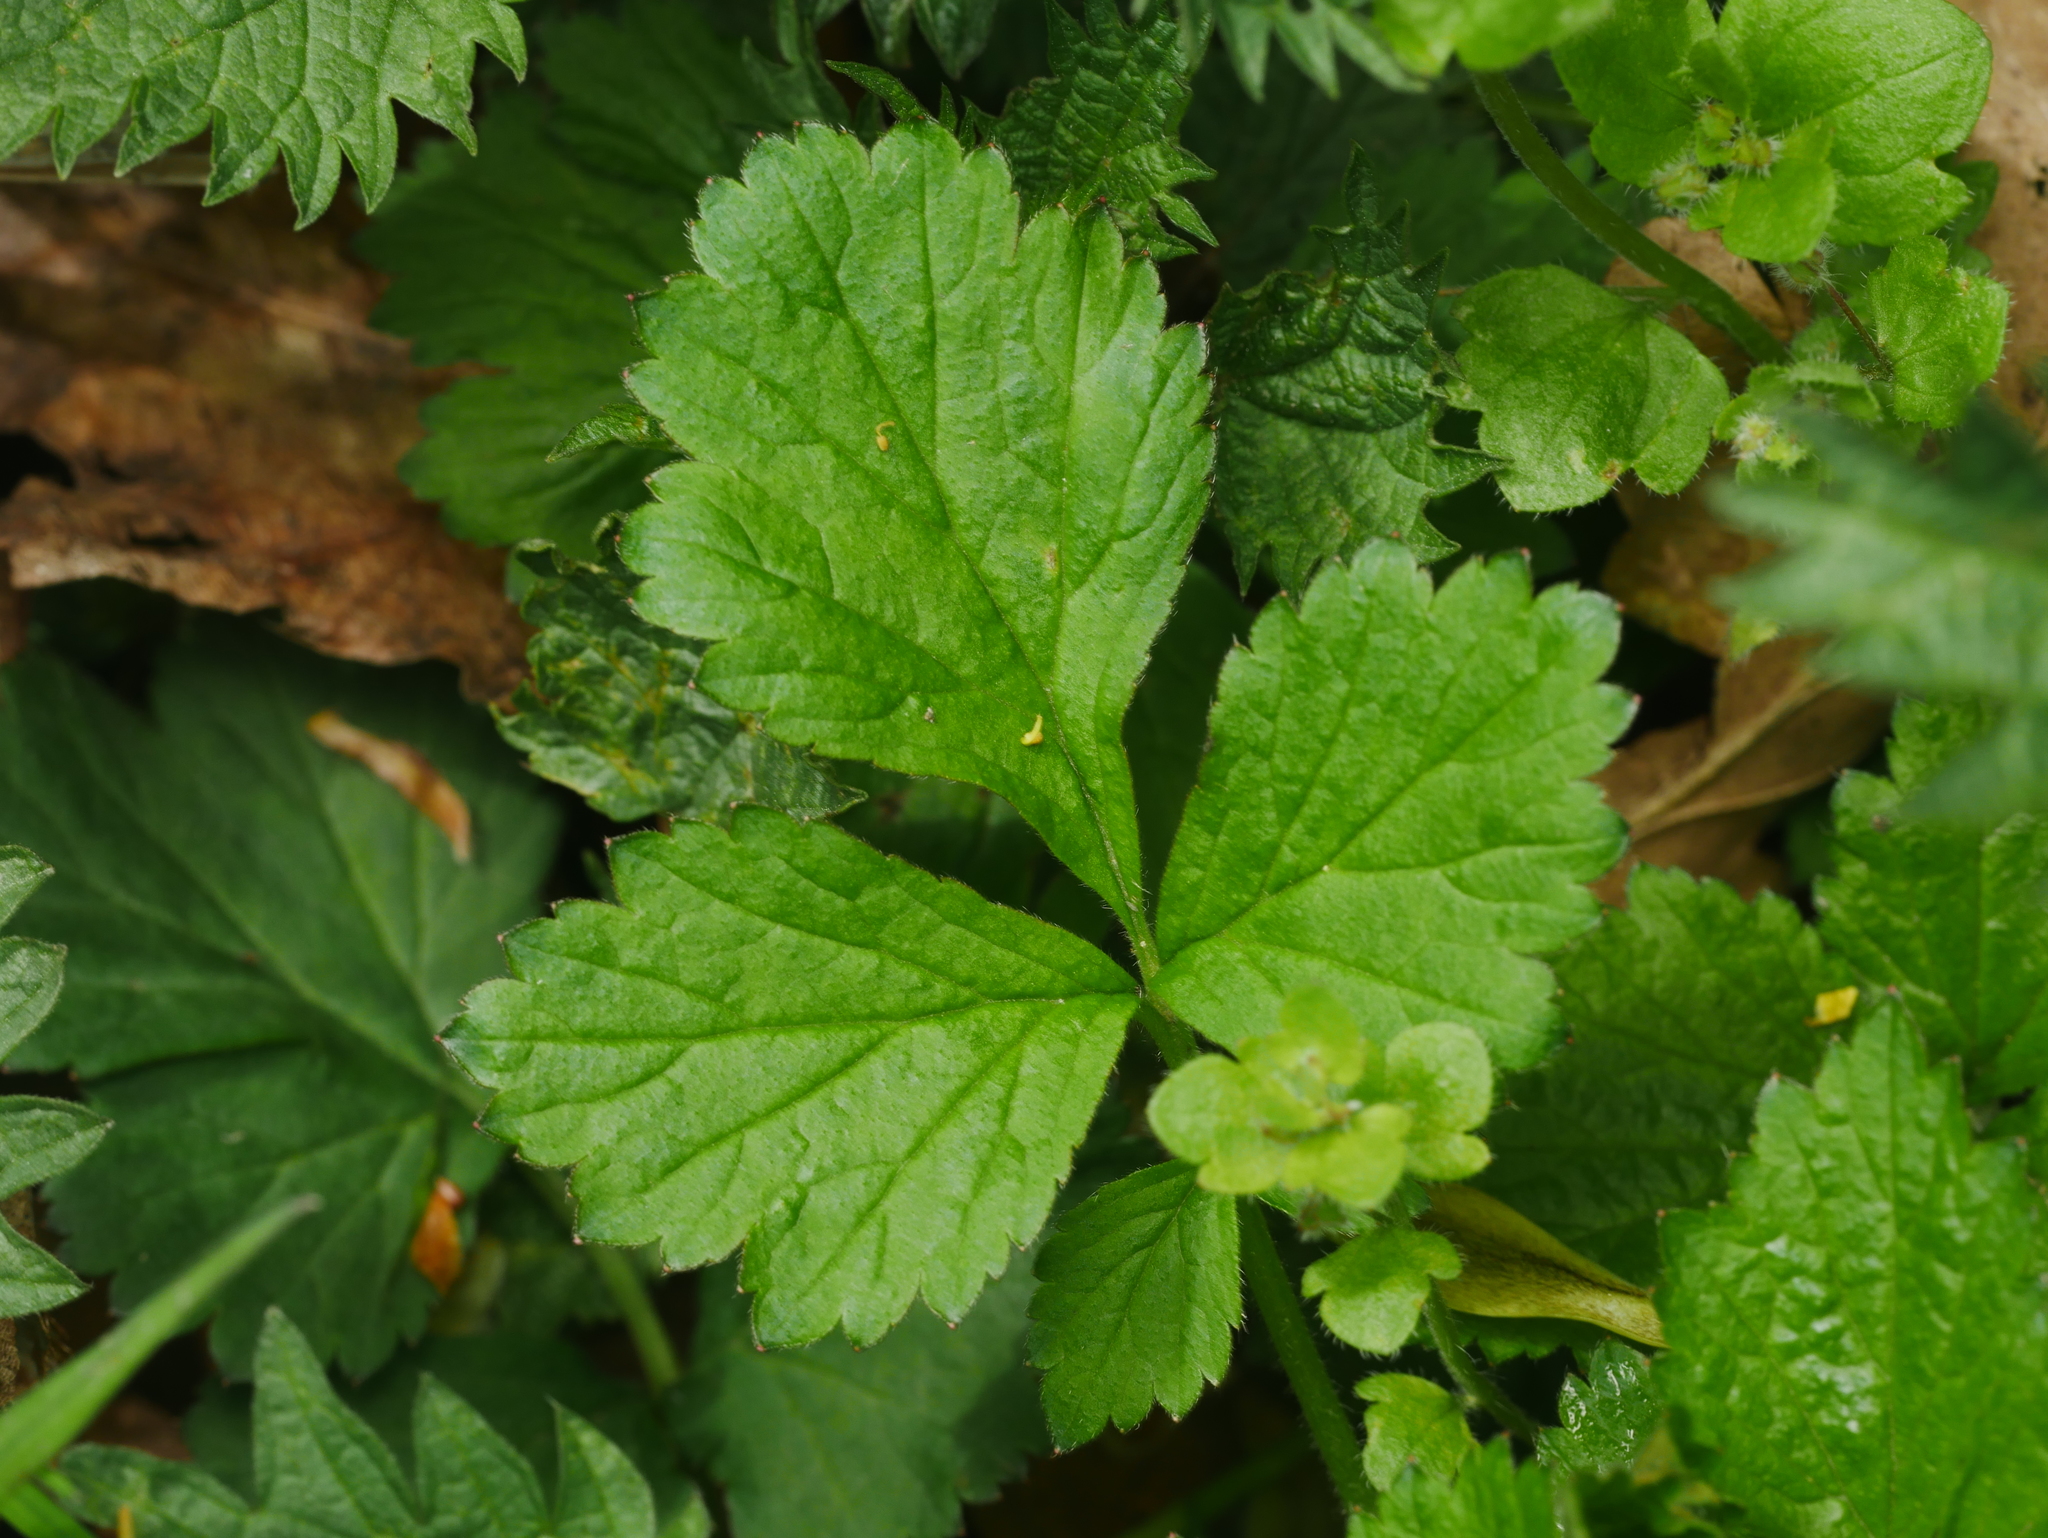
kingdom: Plantae
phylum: Tracheophyta
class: Magnoliopsida
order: Rosales
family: Rosaceae
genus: Geum
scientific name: Geum urbanum
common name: Wood avens
